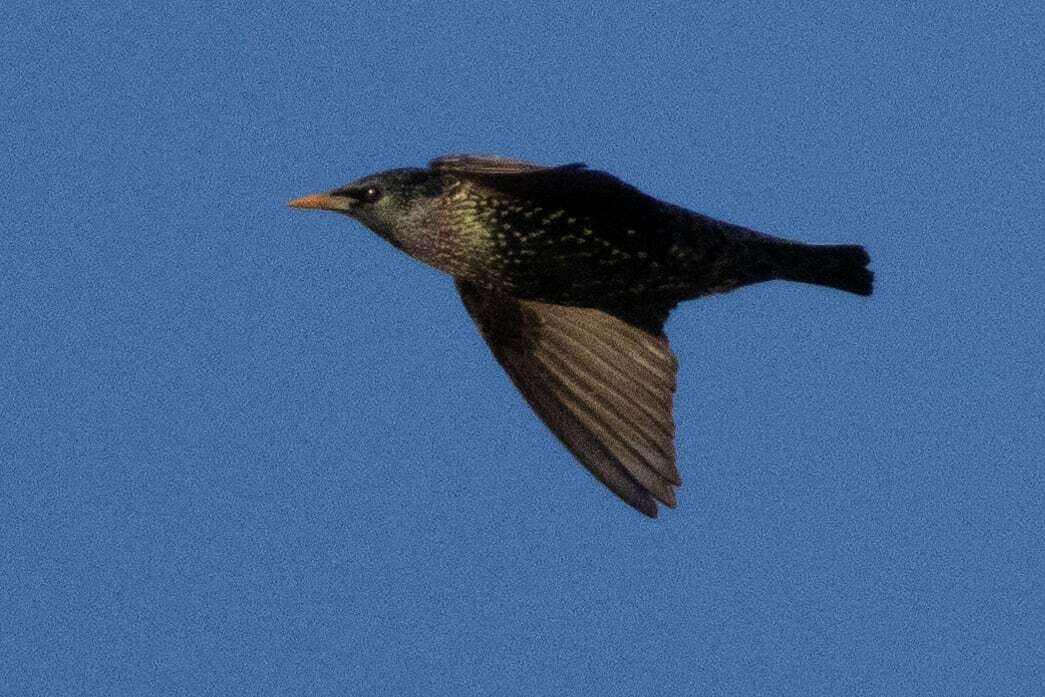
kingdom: Animalia
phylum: Chordata
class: Aves
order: Passeriformes
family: Sturnidae
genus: Sturnus
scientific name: Sturnus vulgaris
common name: Common starling
